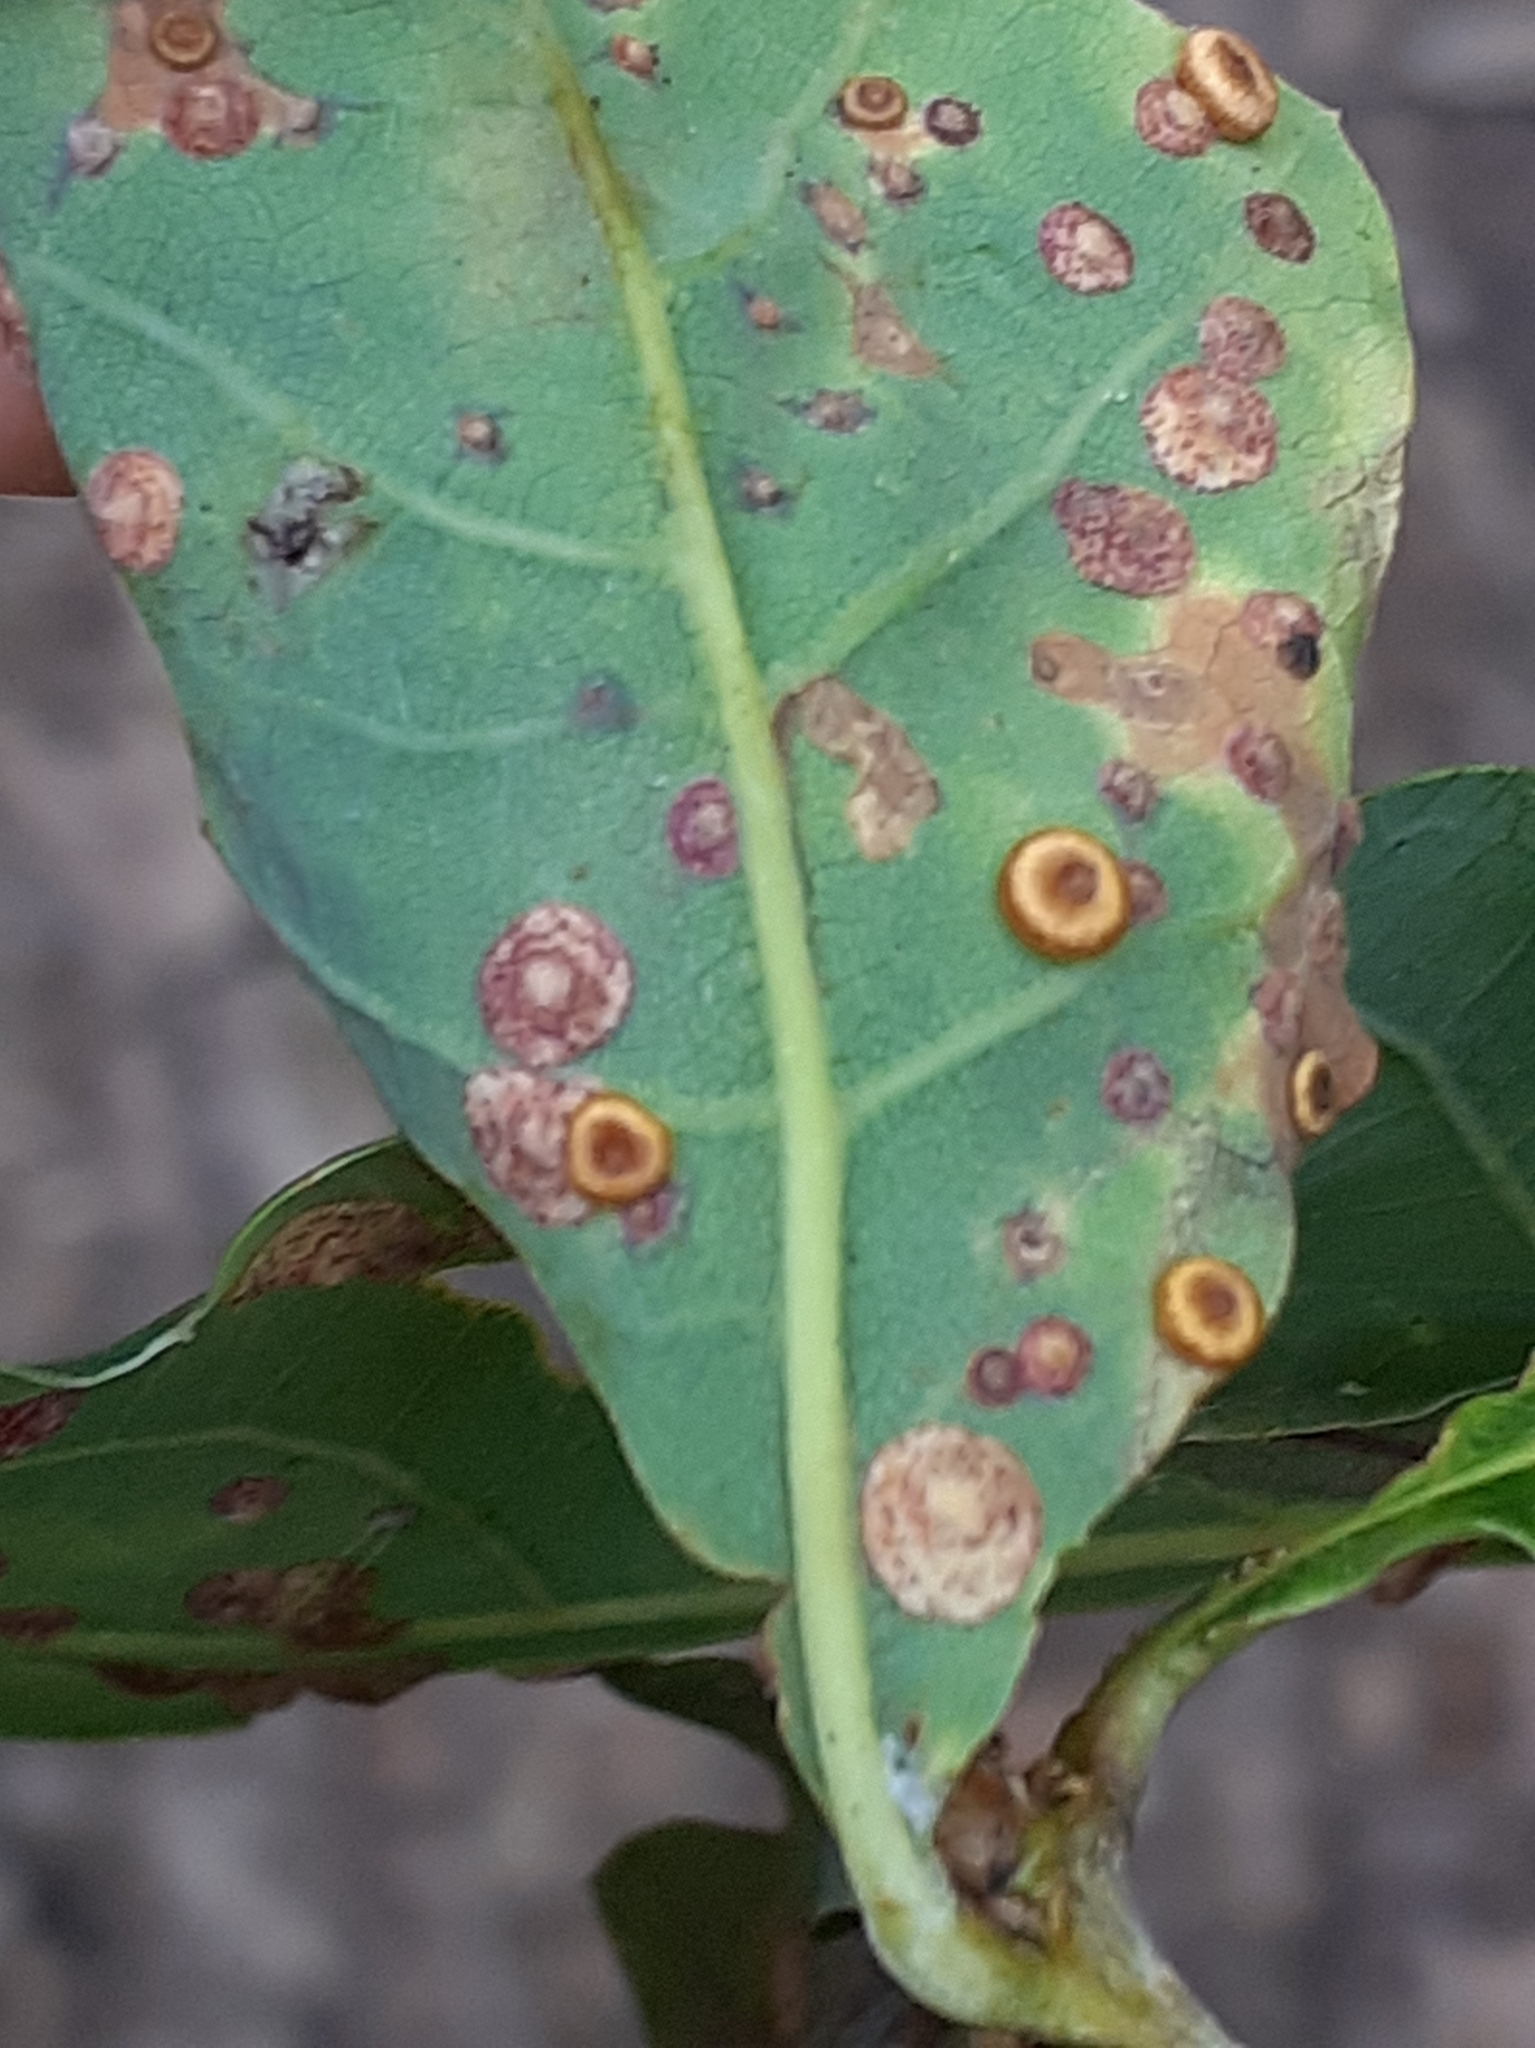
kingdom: Animalia
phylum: Arthropoda
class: Insecta
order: Hymenoptera
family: Cynipidae
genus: Neuroterus
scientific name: Neuroterus numismalis
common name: Silk-button spangle gall
